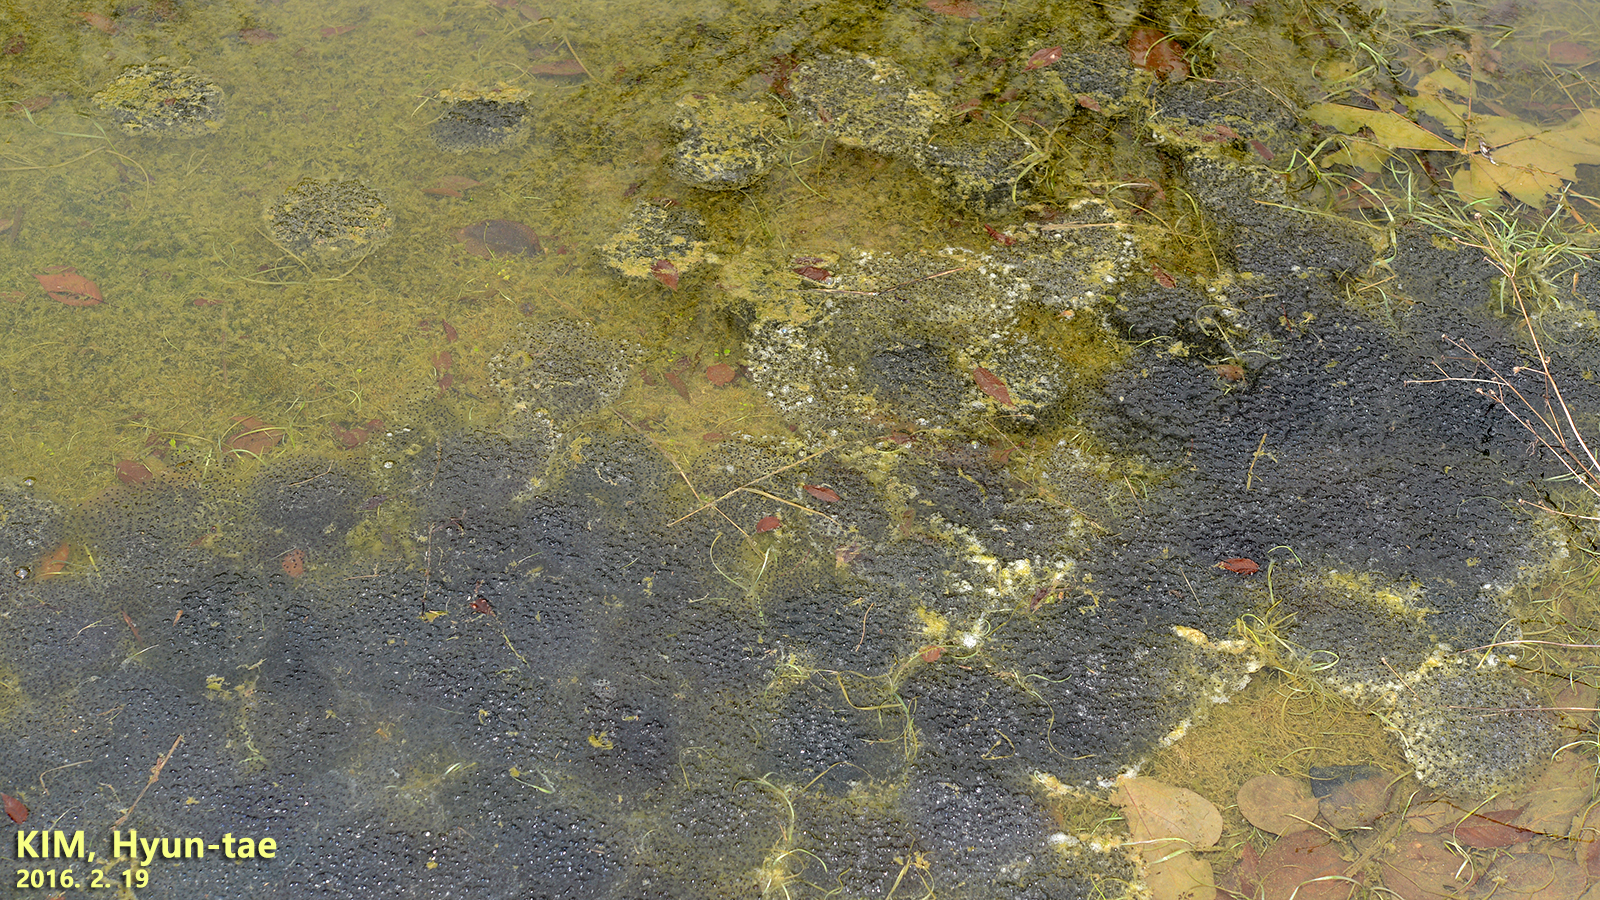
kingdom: Animalia
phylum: Chordata
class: Amphibia
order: Anura
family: Ranidae
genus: Rana
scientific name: Rana uenoi
